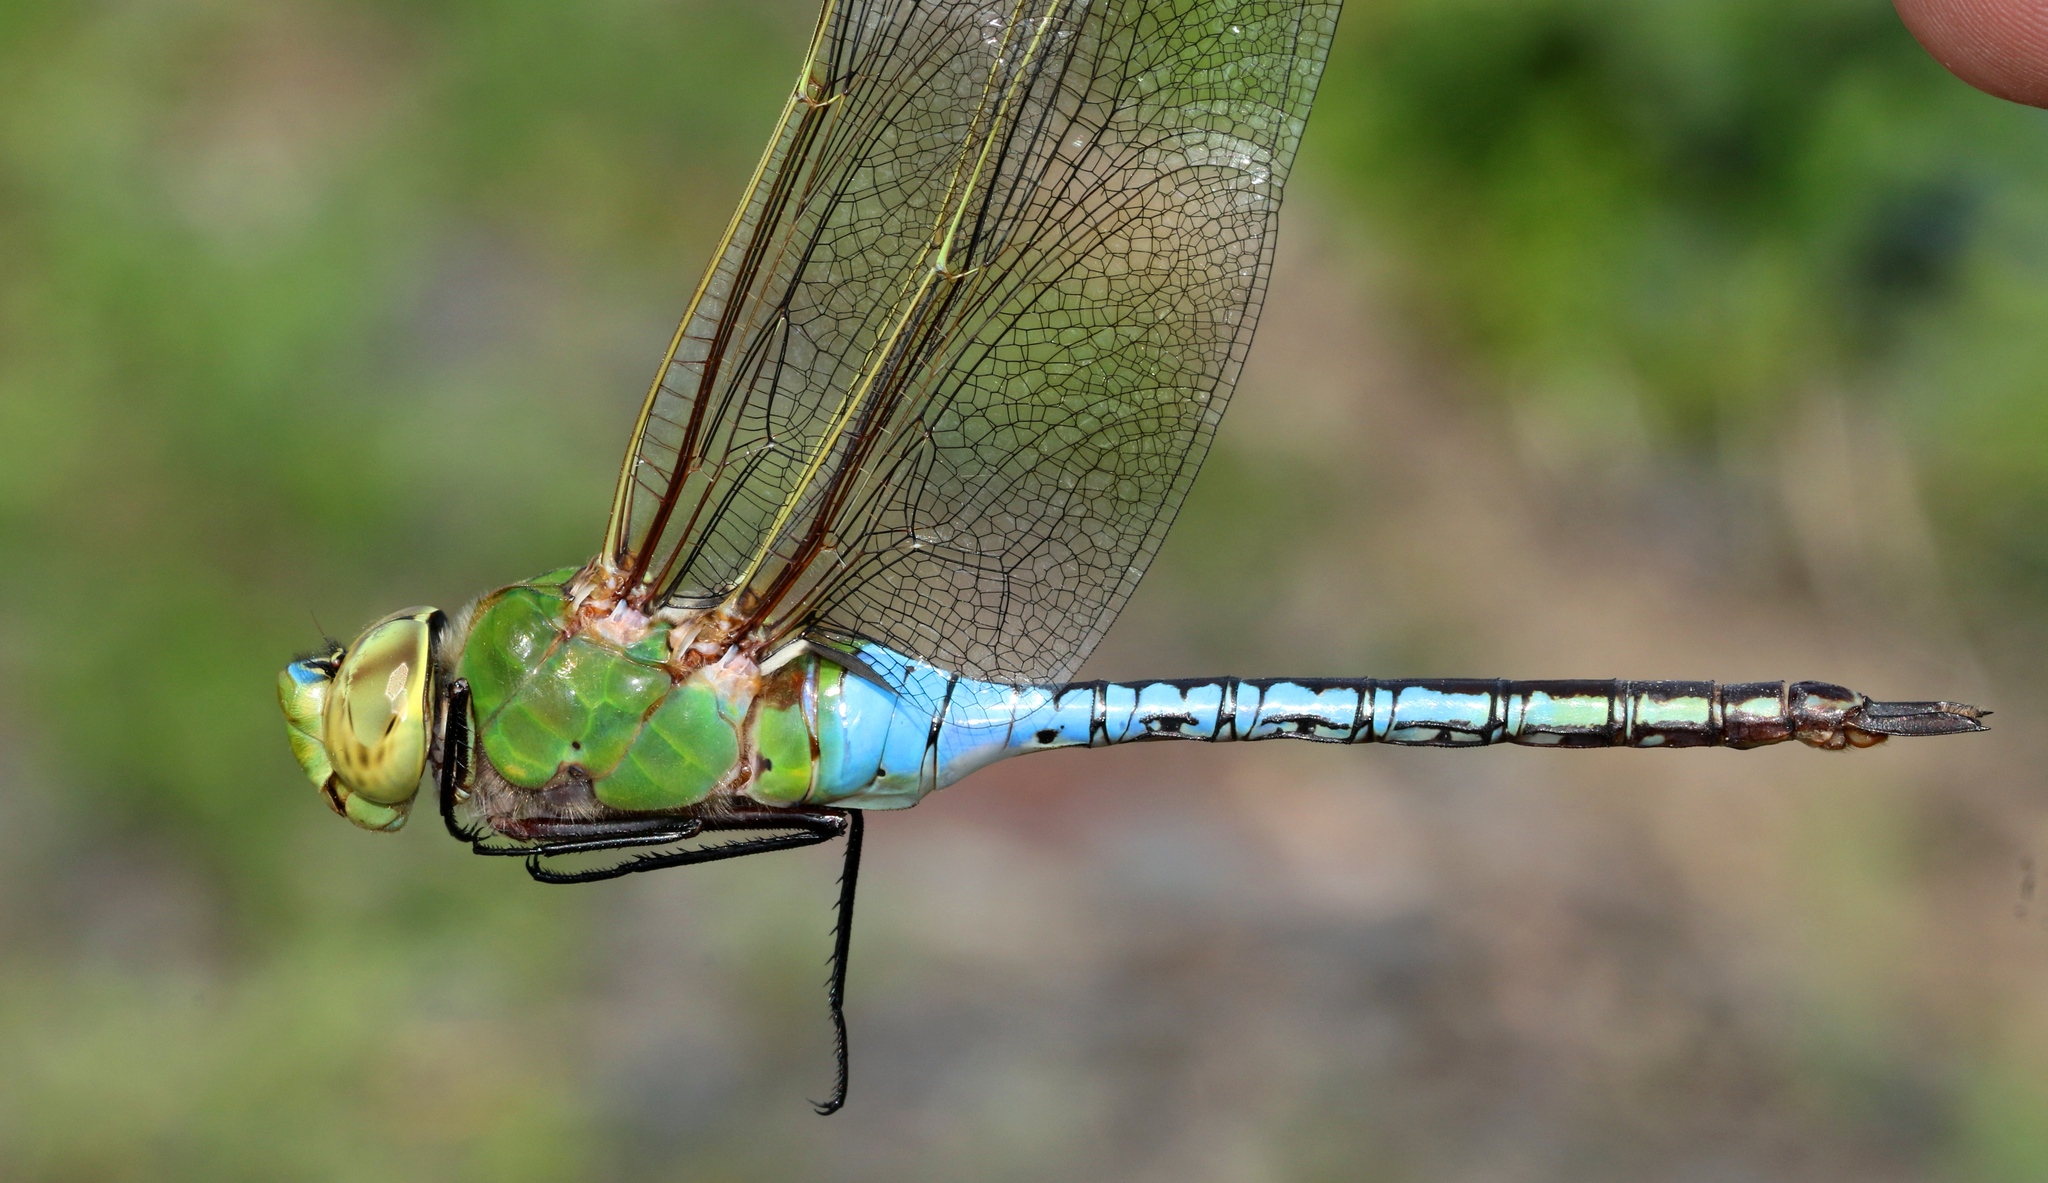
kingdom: Animalia
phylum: Arthropoda
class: Insecta
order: Odonata
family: Aeshnidae
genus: Anax
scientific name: Anax junius
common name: Common green darner
